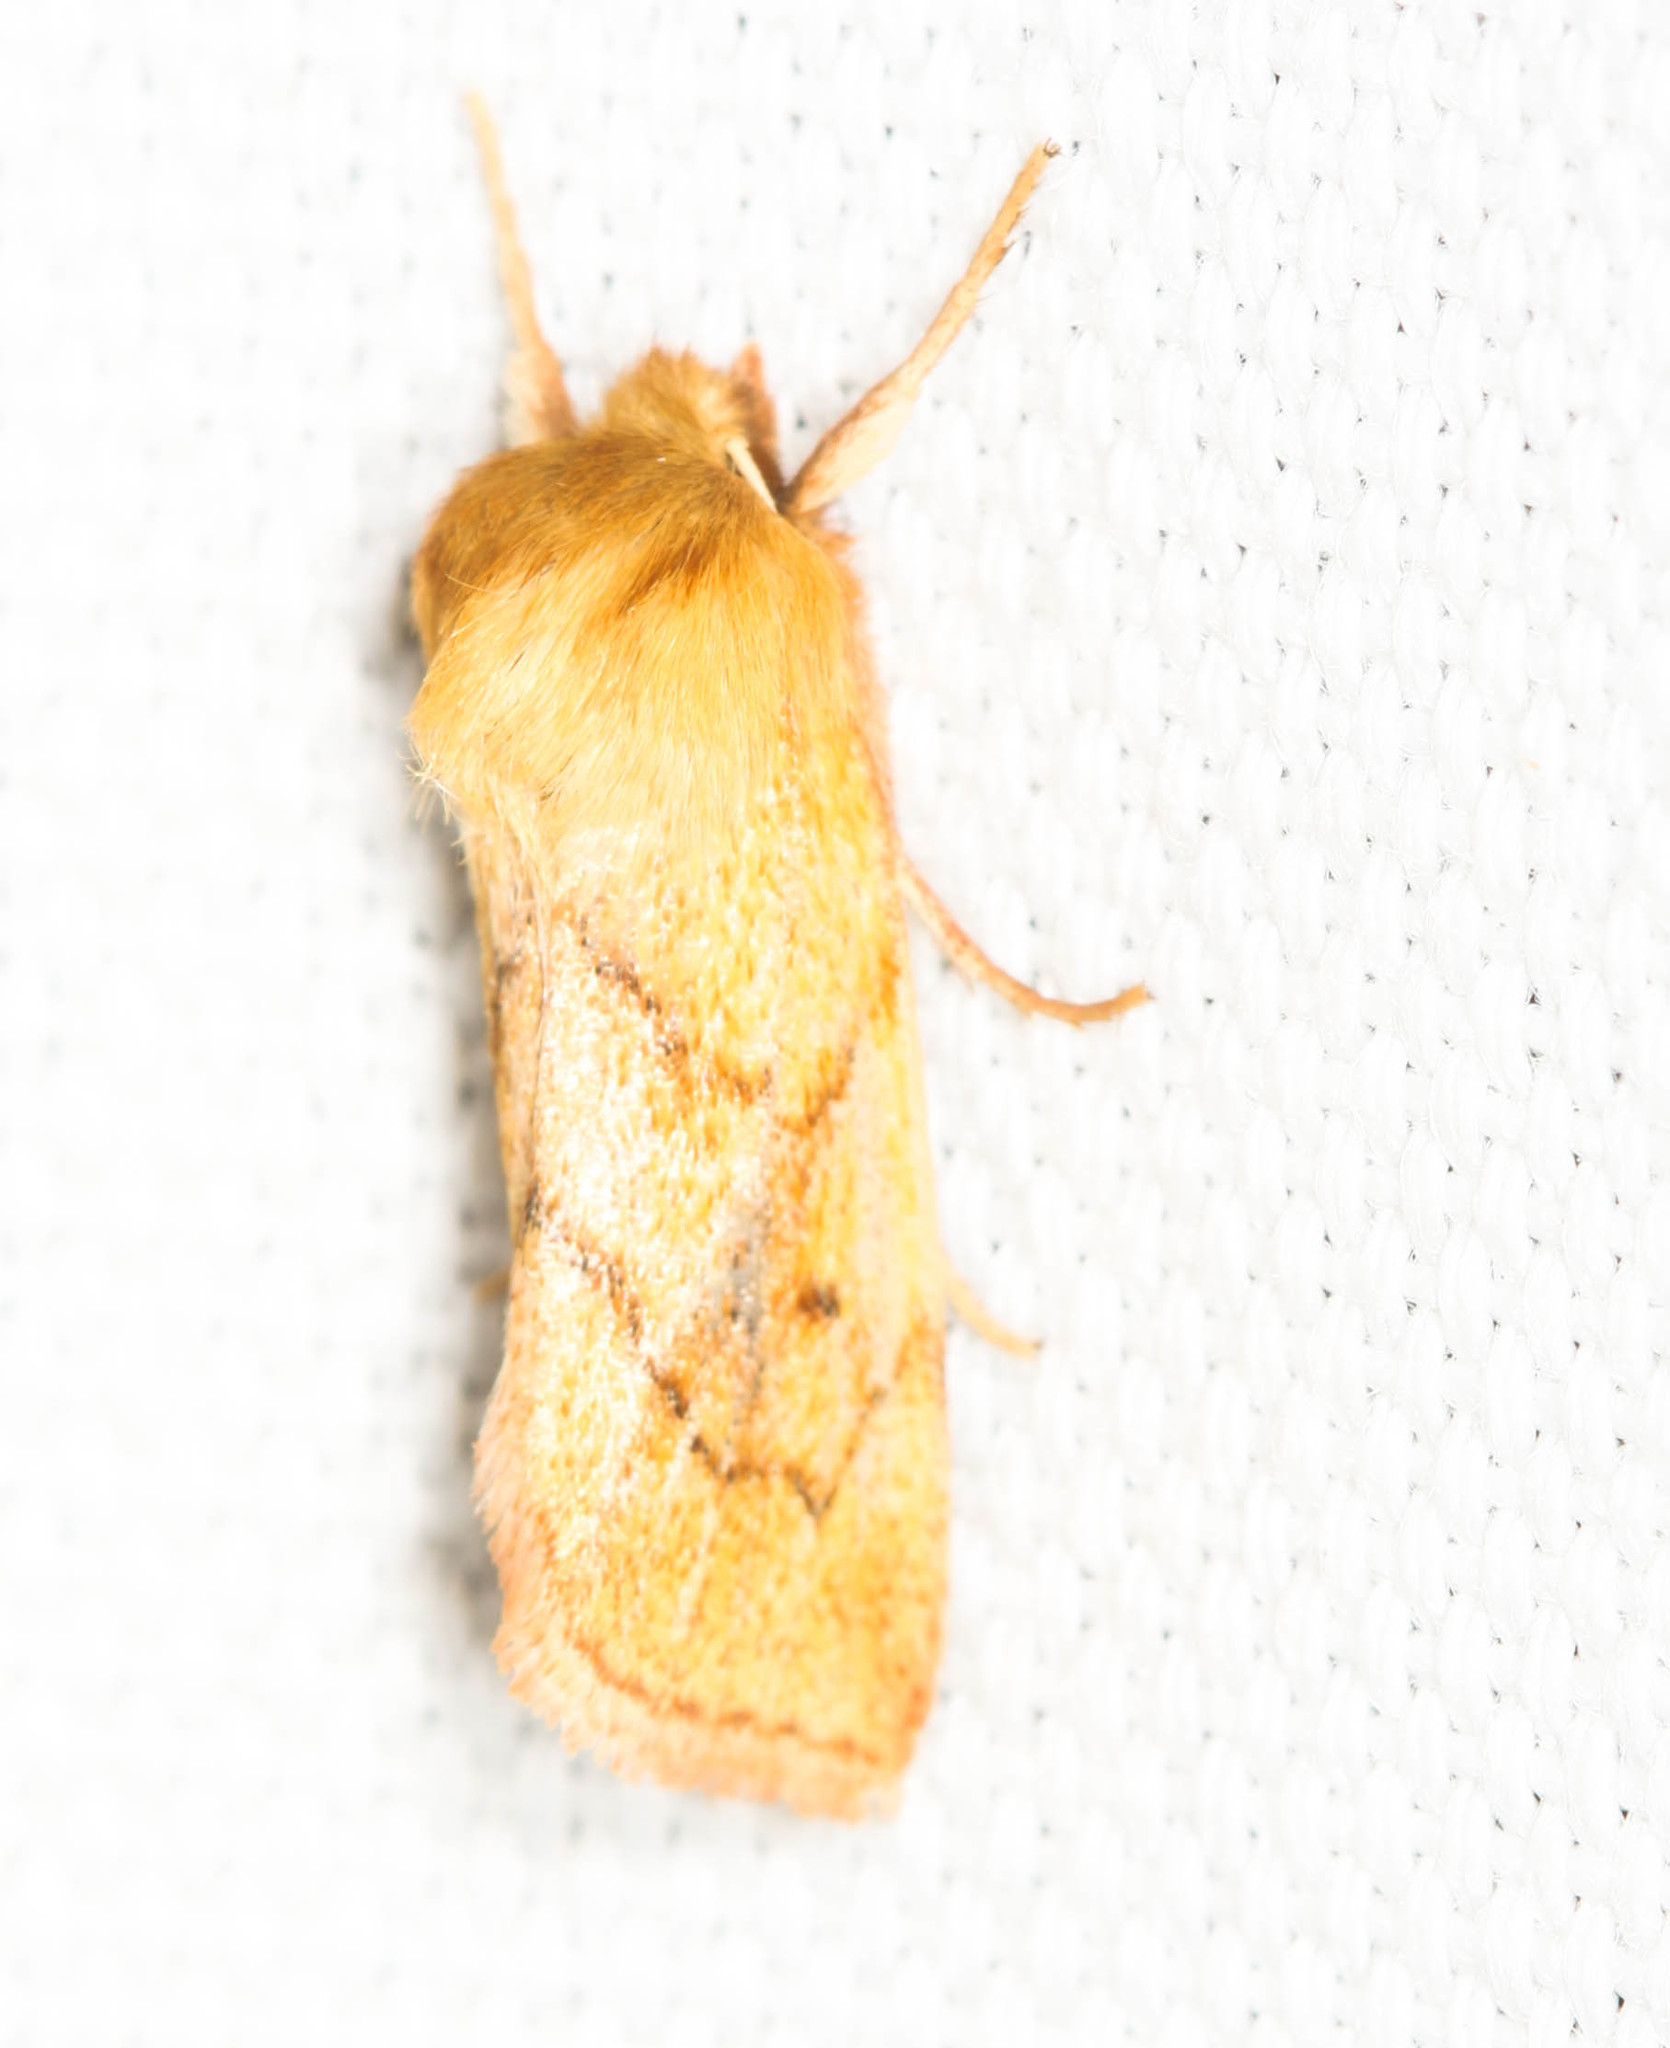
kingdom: Animalia
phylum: Arthropoda
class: Insecta
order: Lepidoptera
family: Noctuidae
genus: Zosteropoda
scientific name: Zosteropoda hirtipes
